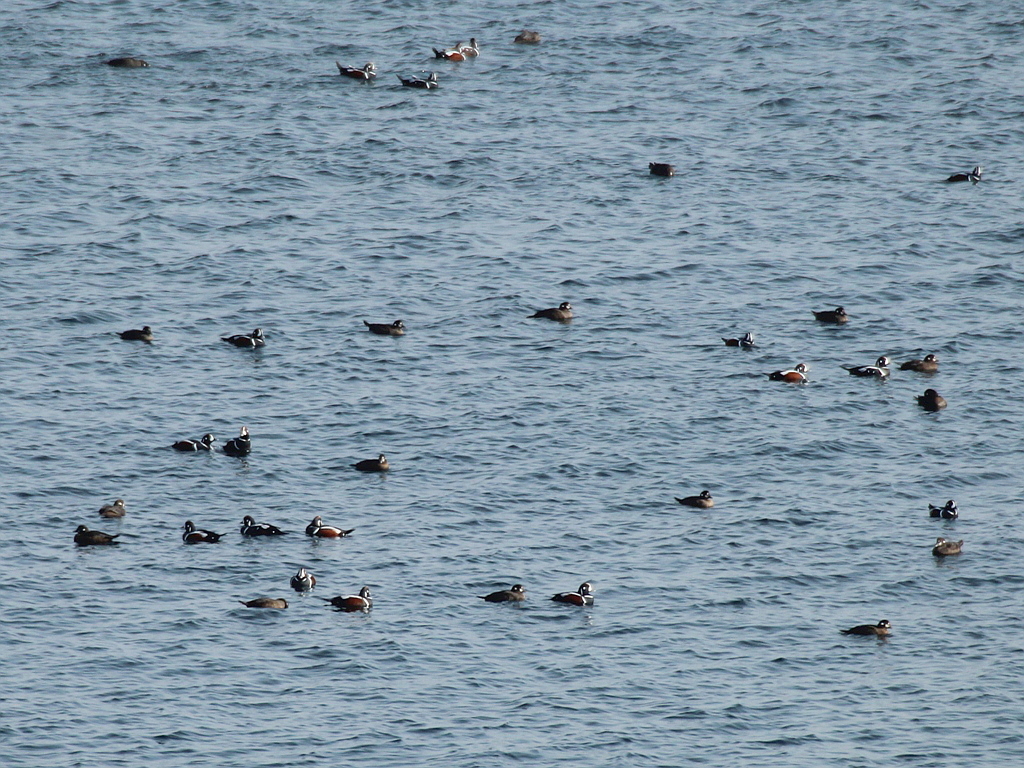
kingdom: Animalia
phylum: Chordata
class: Aves
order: Anseriformes
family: Anatidae
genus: Histrionicus
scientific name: Histrionicus histrionicus
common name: Harlequin duck
